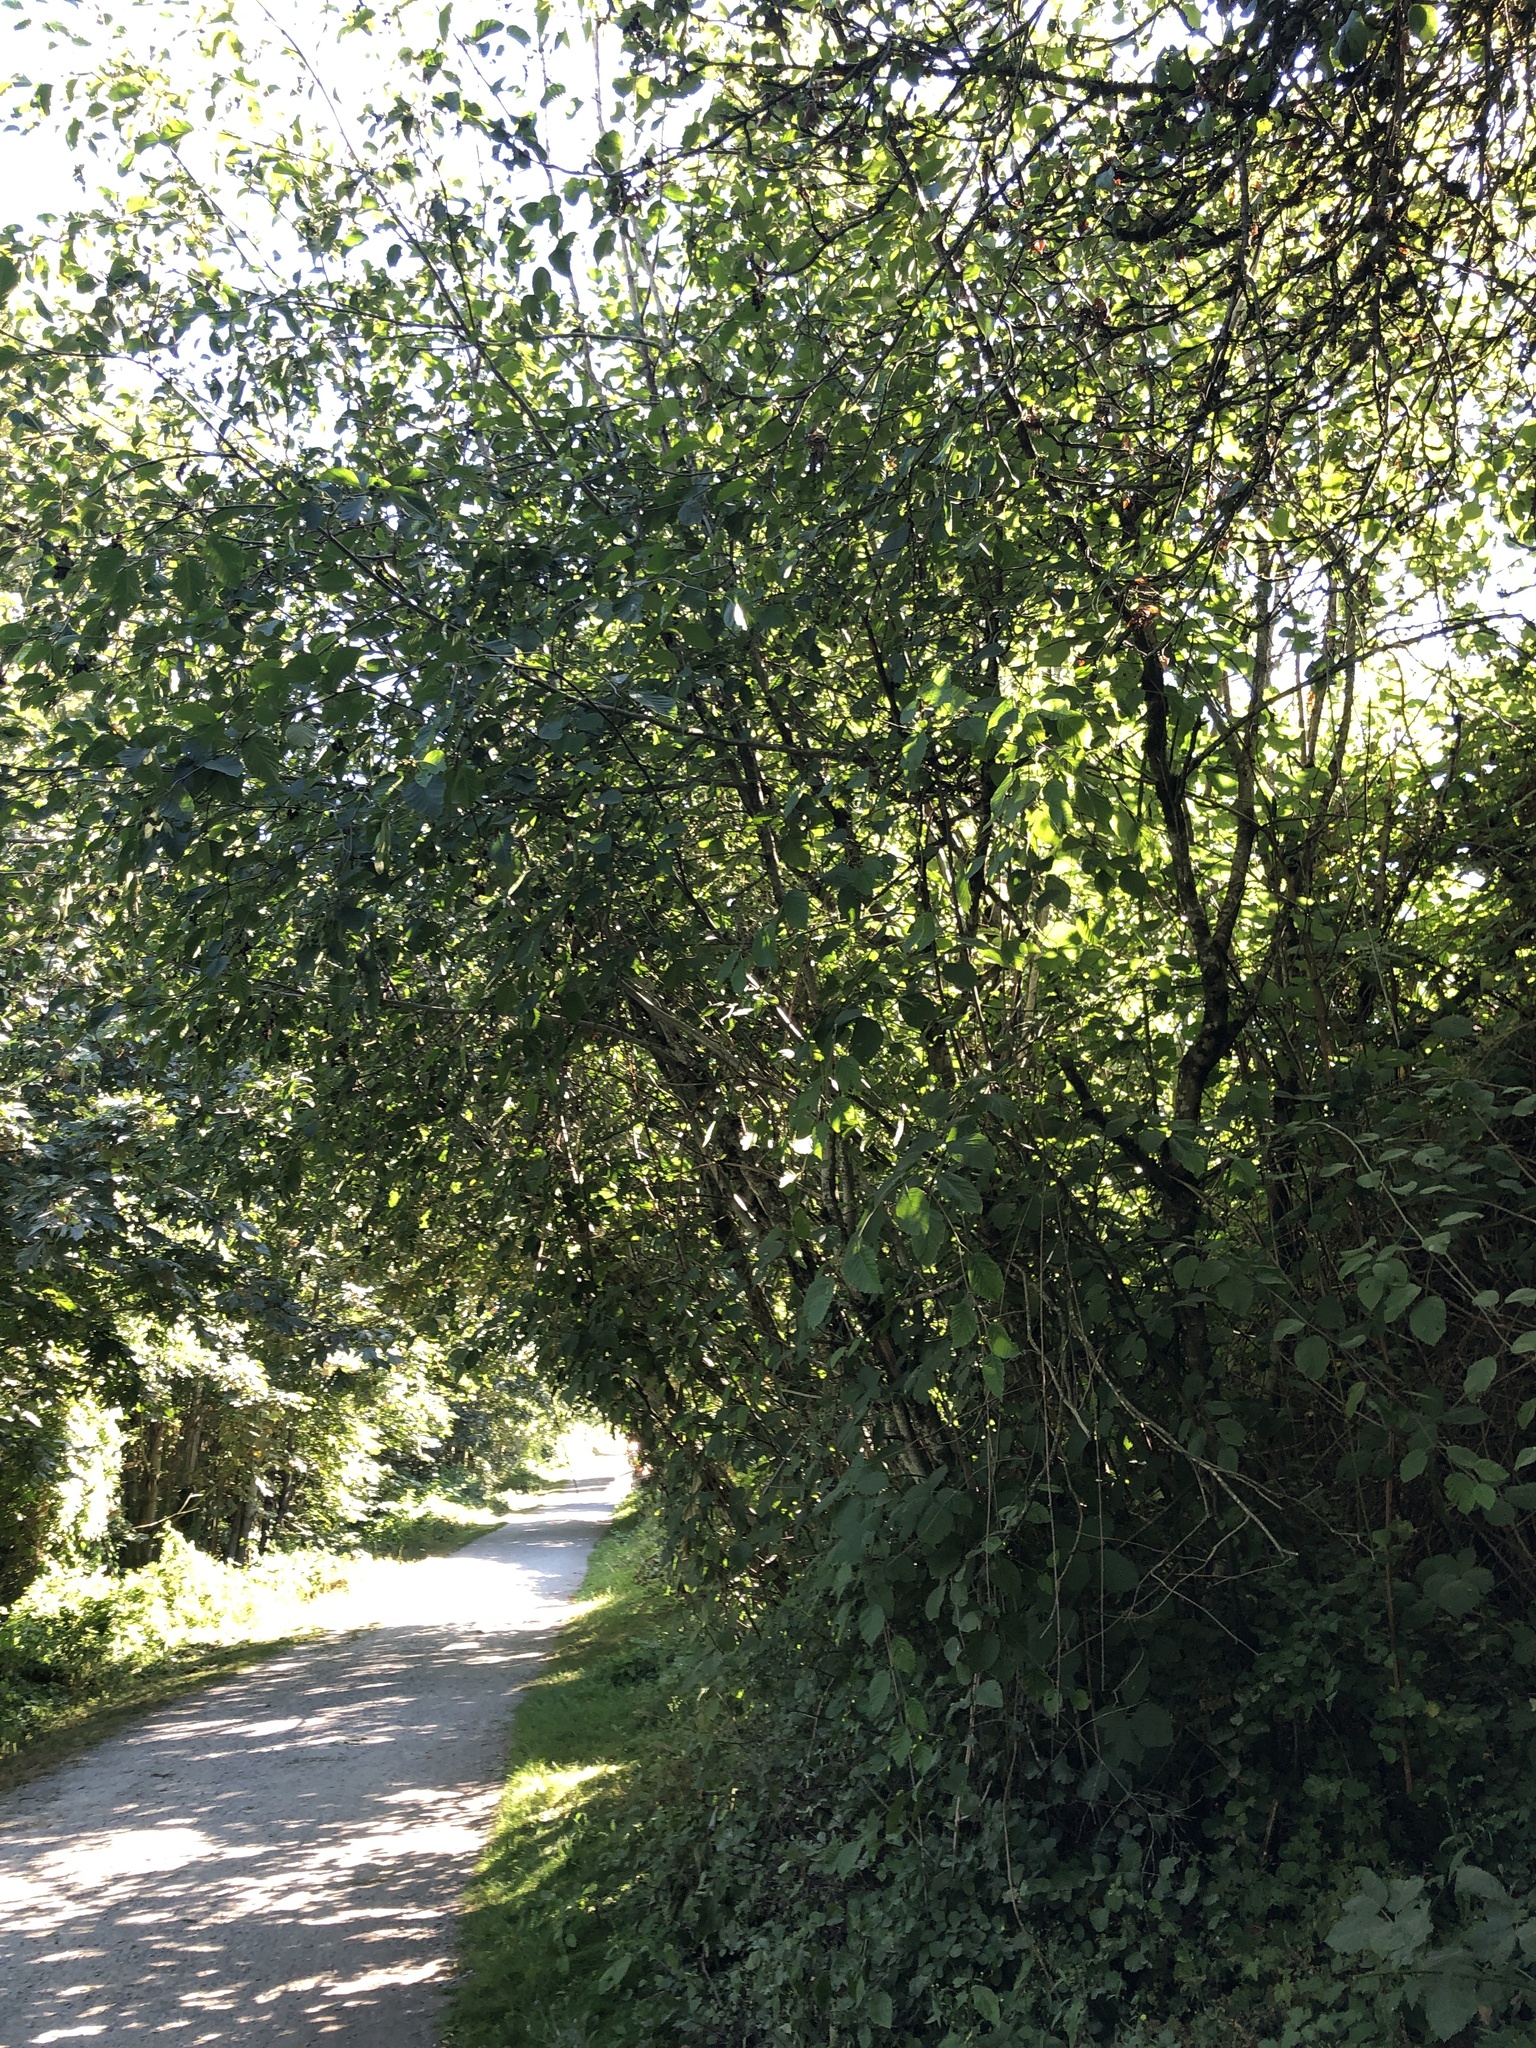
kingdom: Plantae
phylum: Tracheophyta
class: Magnoliopsida
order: Fagales
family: Betulaceae
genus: Alnus
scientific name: Alnus alnobetula
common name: Green alder
